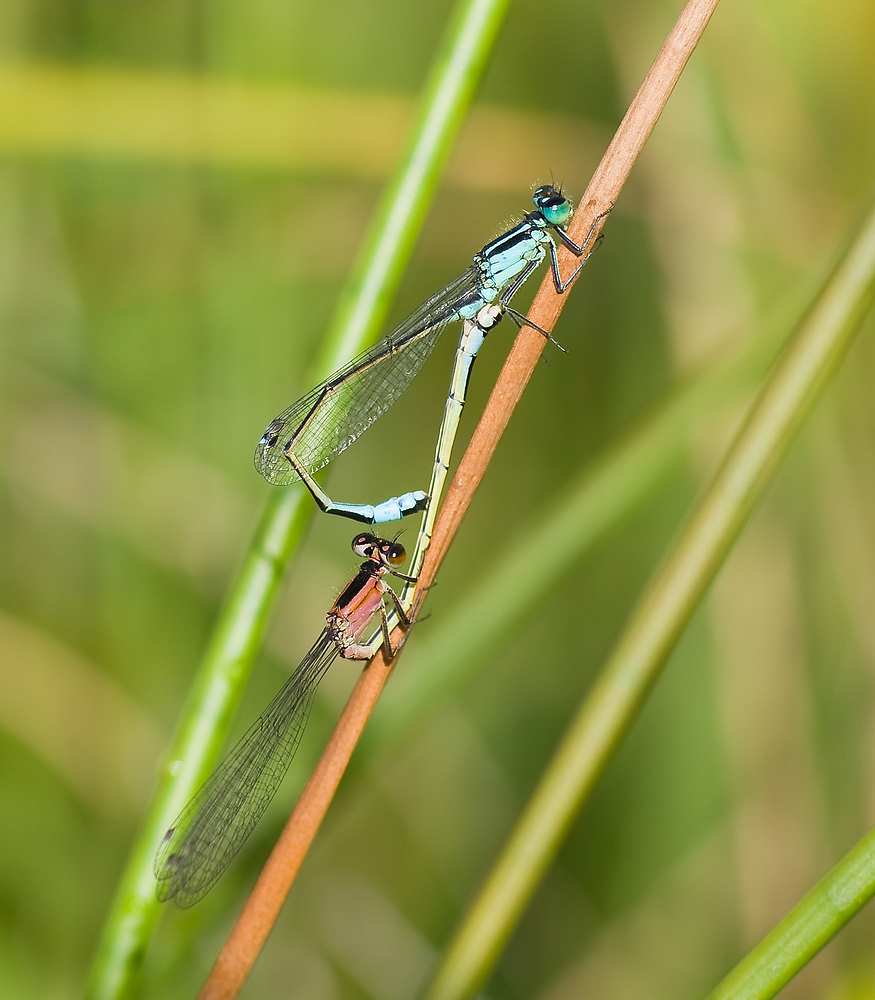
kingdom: Animalia
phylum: Arthropoda
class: Insecta
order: Odonata
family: Coenagrionidae
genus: Ischnura
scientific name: Ischnura elegans
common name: Blue-tailed damselfly
